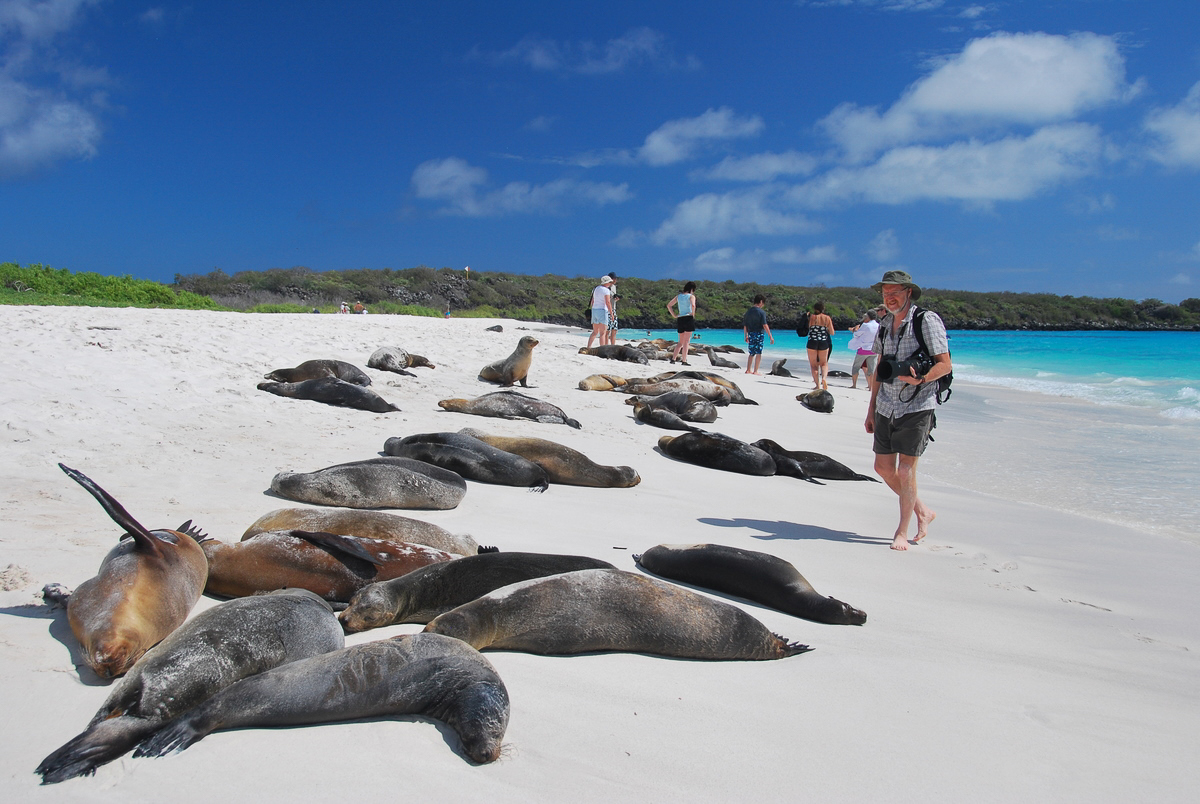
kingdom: Animalia
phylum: Chordata
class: Mammalia
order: Carnivora
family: Otariidae
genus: Zalophus
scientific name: Zalophus wollebaeki
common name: Galapagos sea lion
